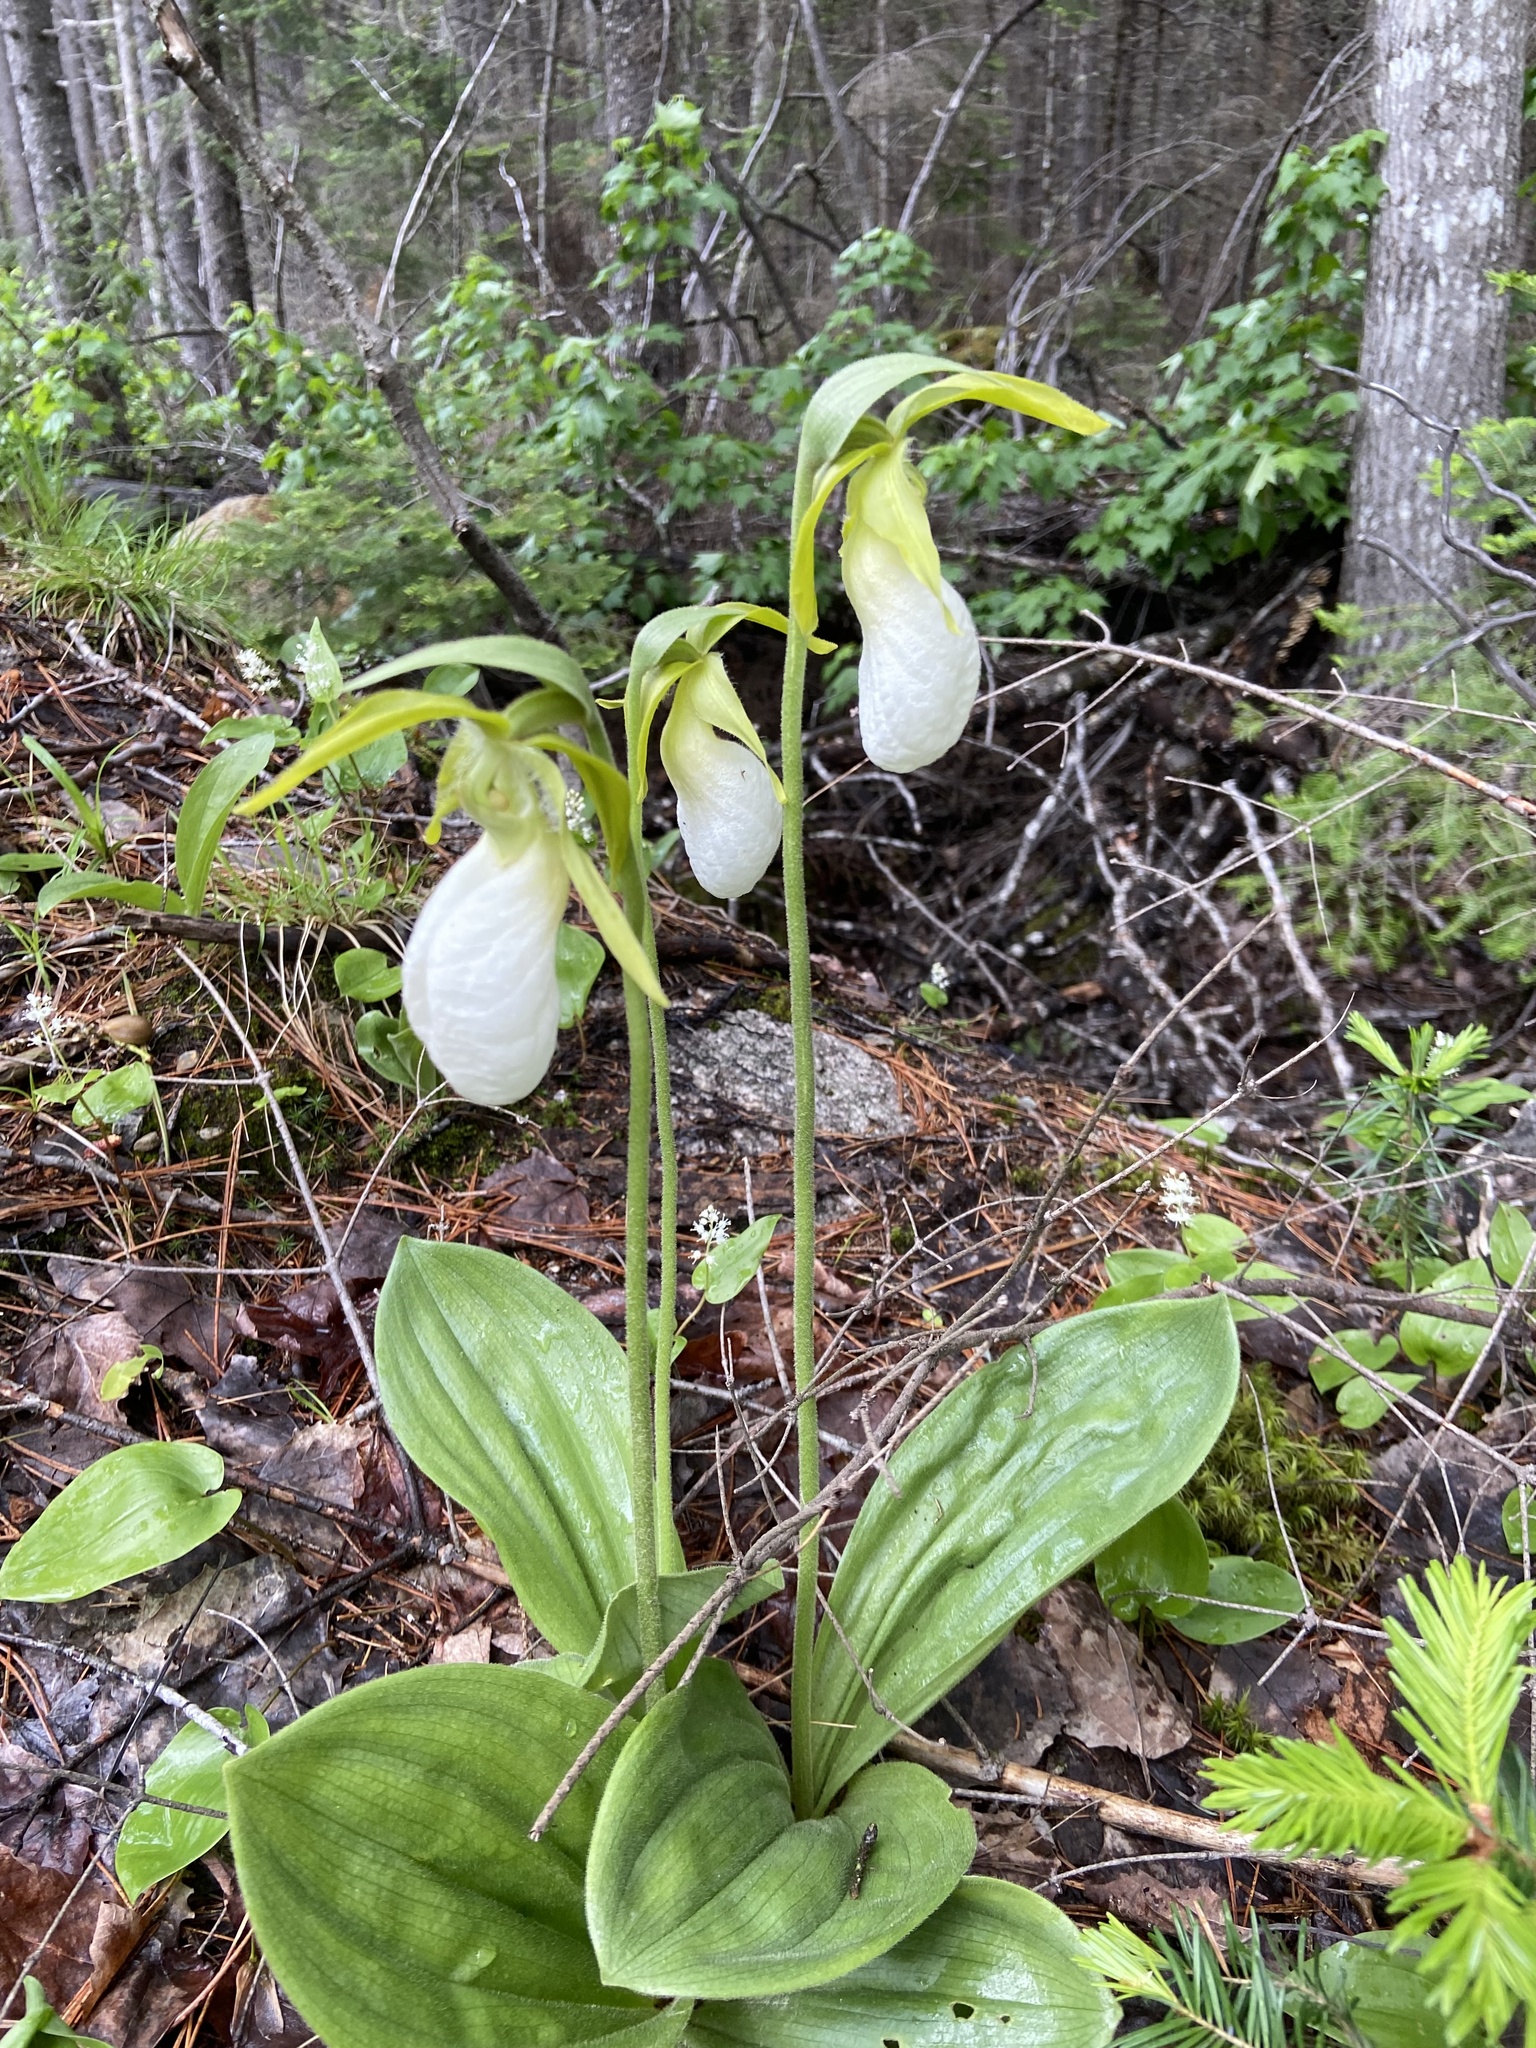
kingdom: Plantae
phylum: Tracheophyta
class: Liliopsida
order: Asparagales
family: Orchidaceae
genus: Cypripedium
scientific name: Cypripedium acaule
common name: Pink lady's-slipper
